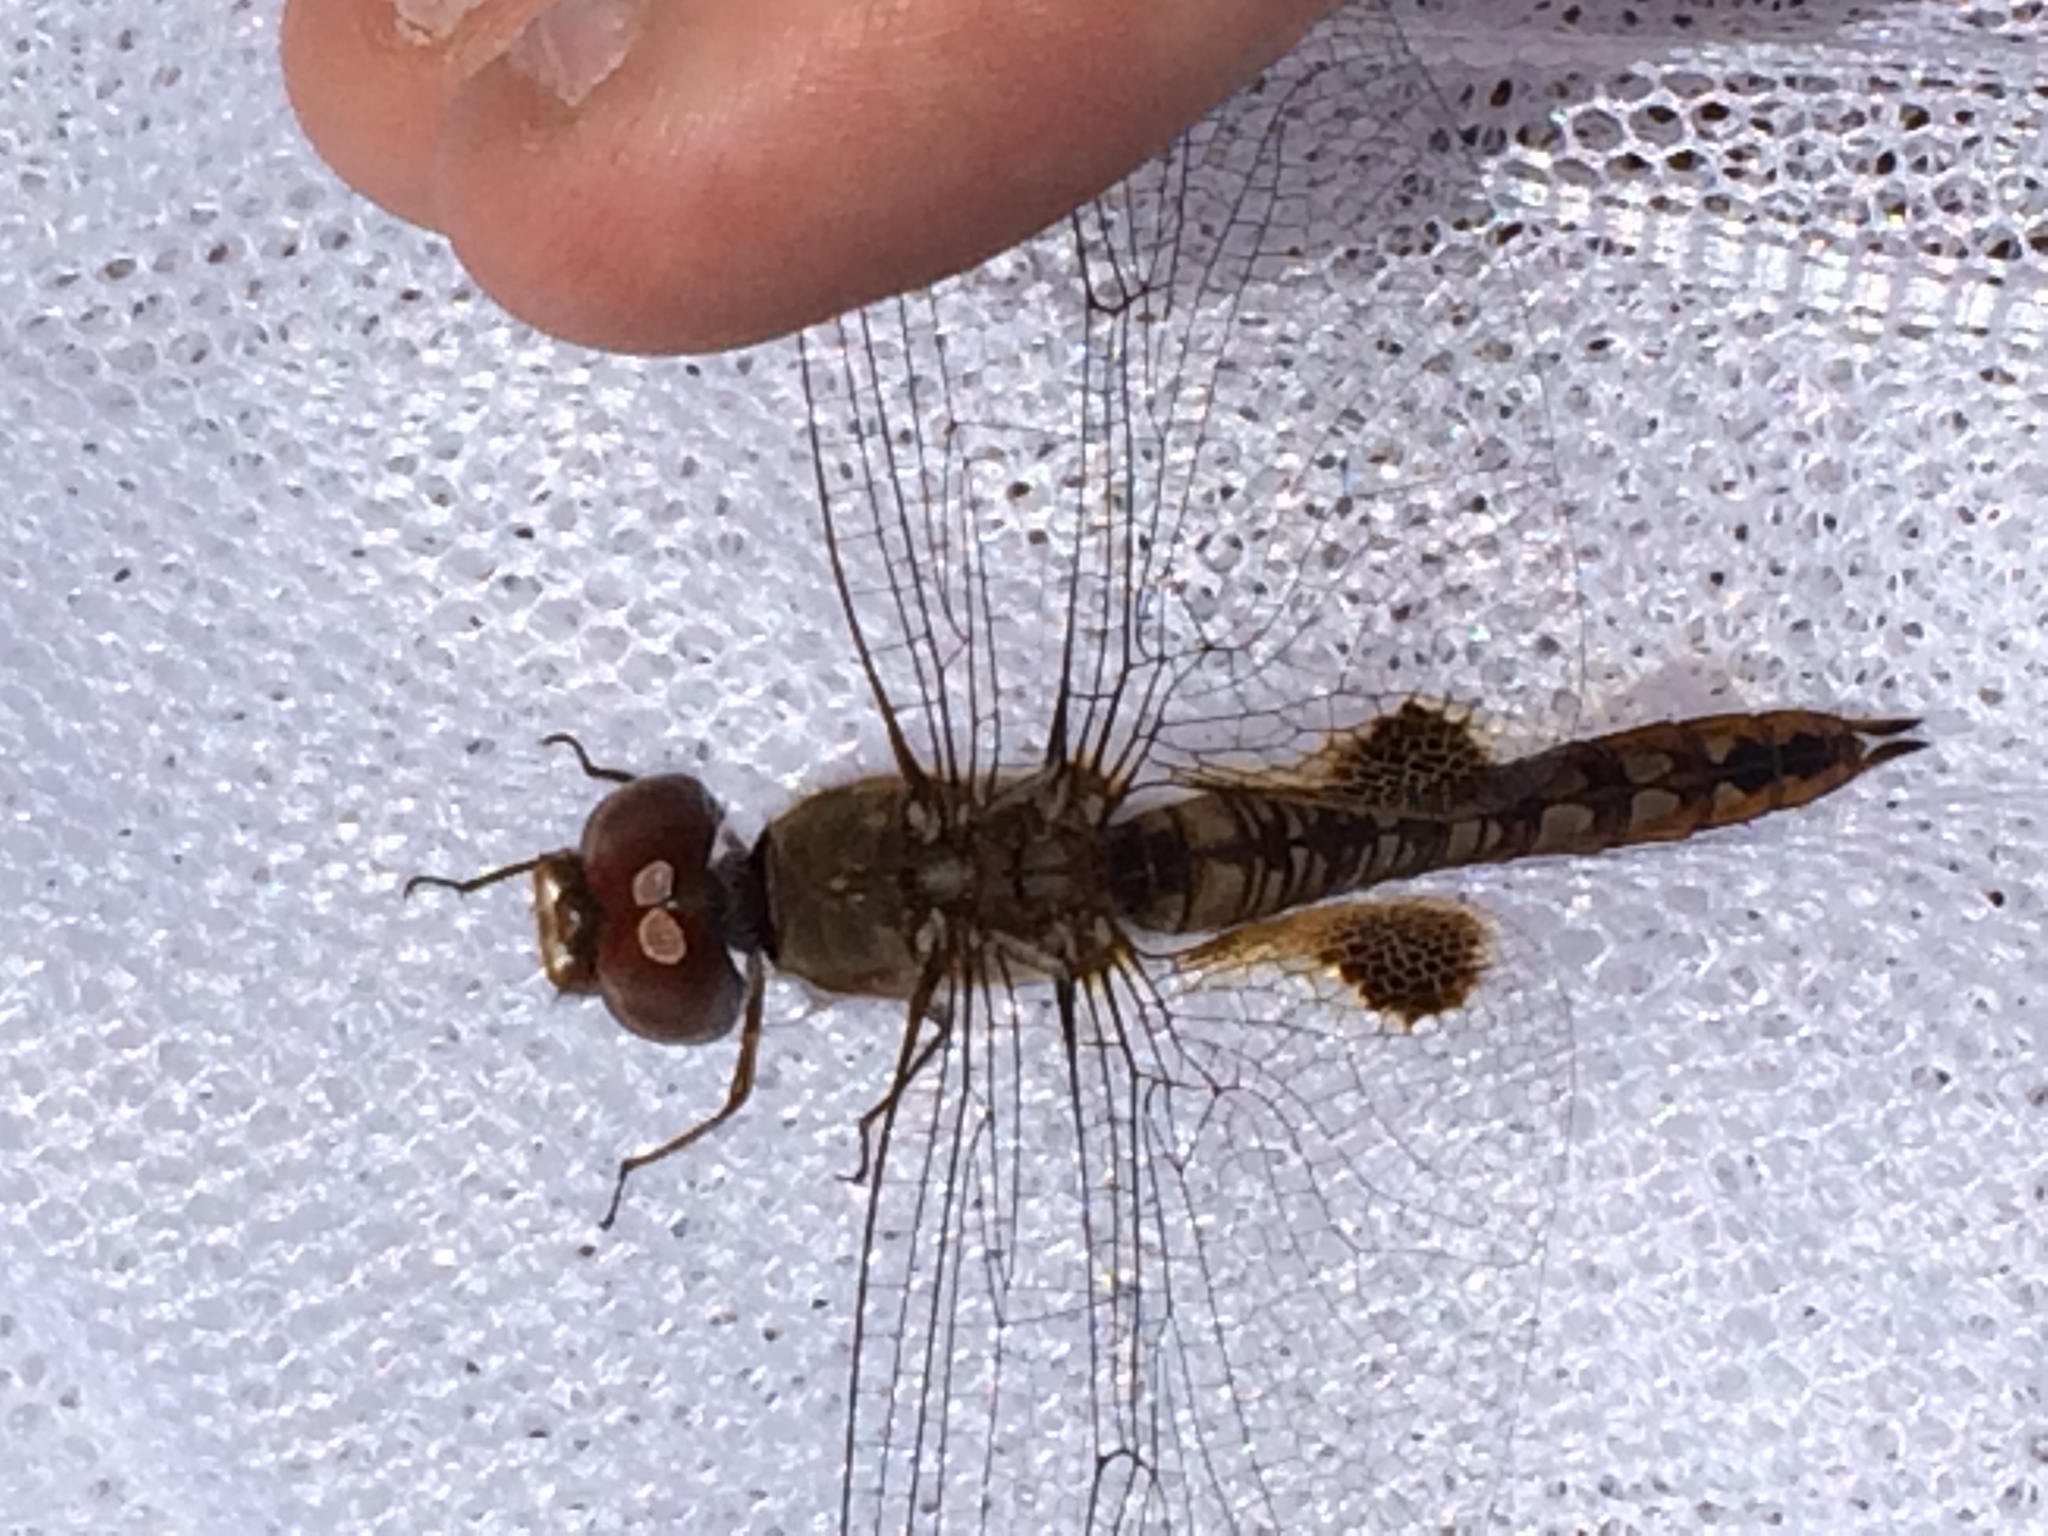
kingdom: Animalia
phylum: Arthropoda
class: Insecta
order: Odonata
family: Libellulidae
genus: Pantala
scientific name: Pantala hymenaea
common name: Spot-winged glider
